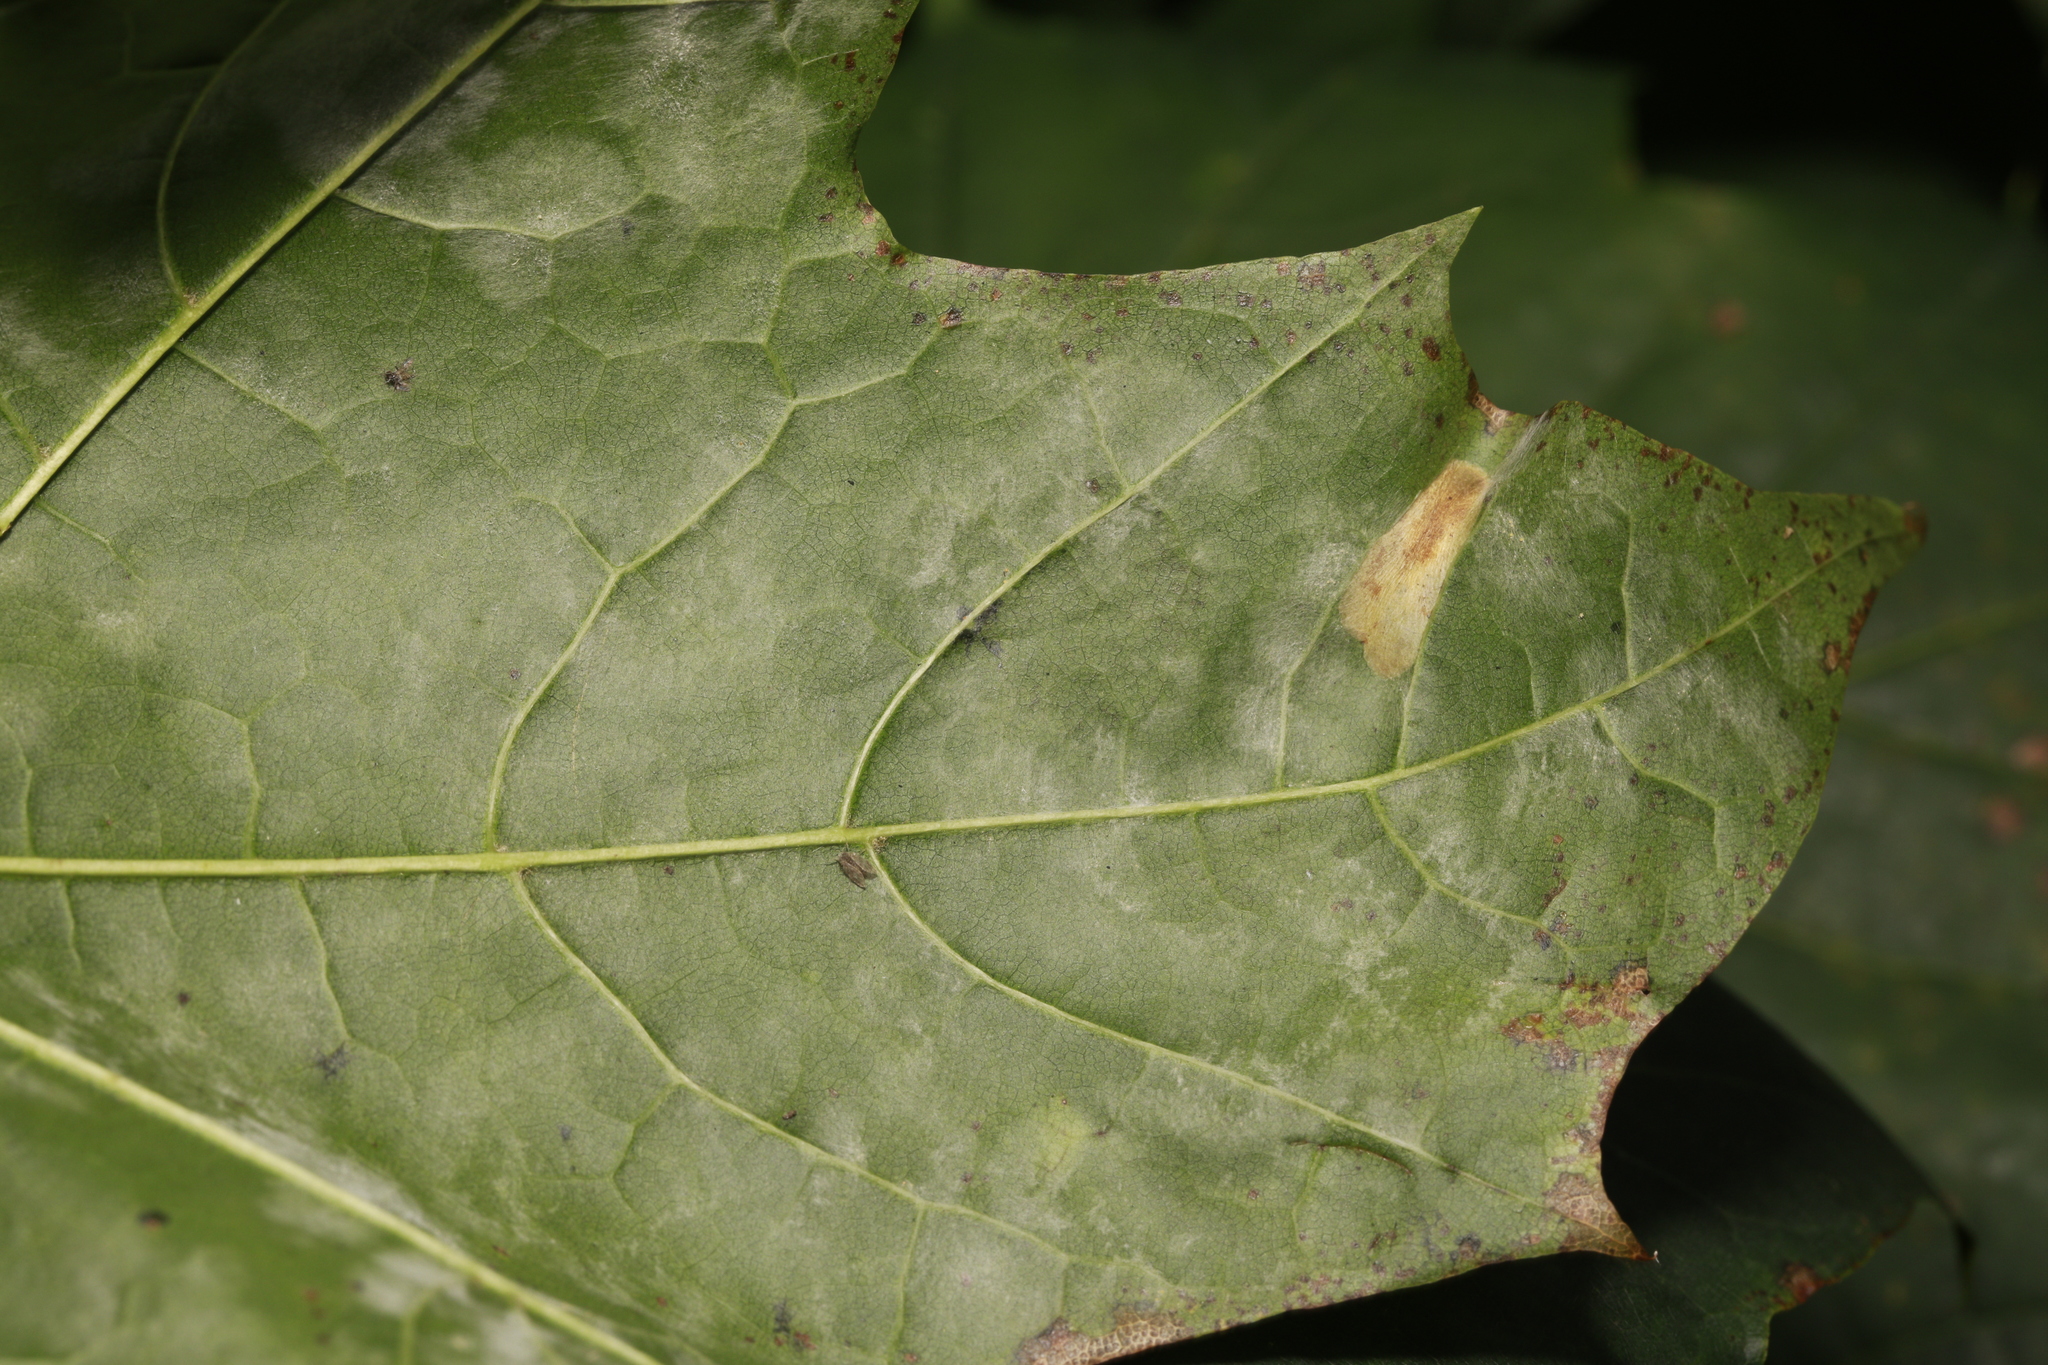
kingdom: Fungi
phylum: Ascomycota
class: Leotiomycetes
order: Helotiales
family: Erysiphaceae
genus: Sawadaea
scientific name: Sawadaea bicornis
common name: Maple mildew
